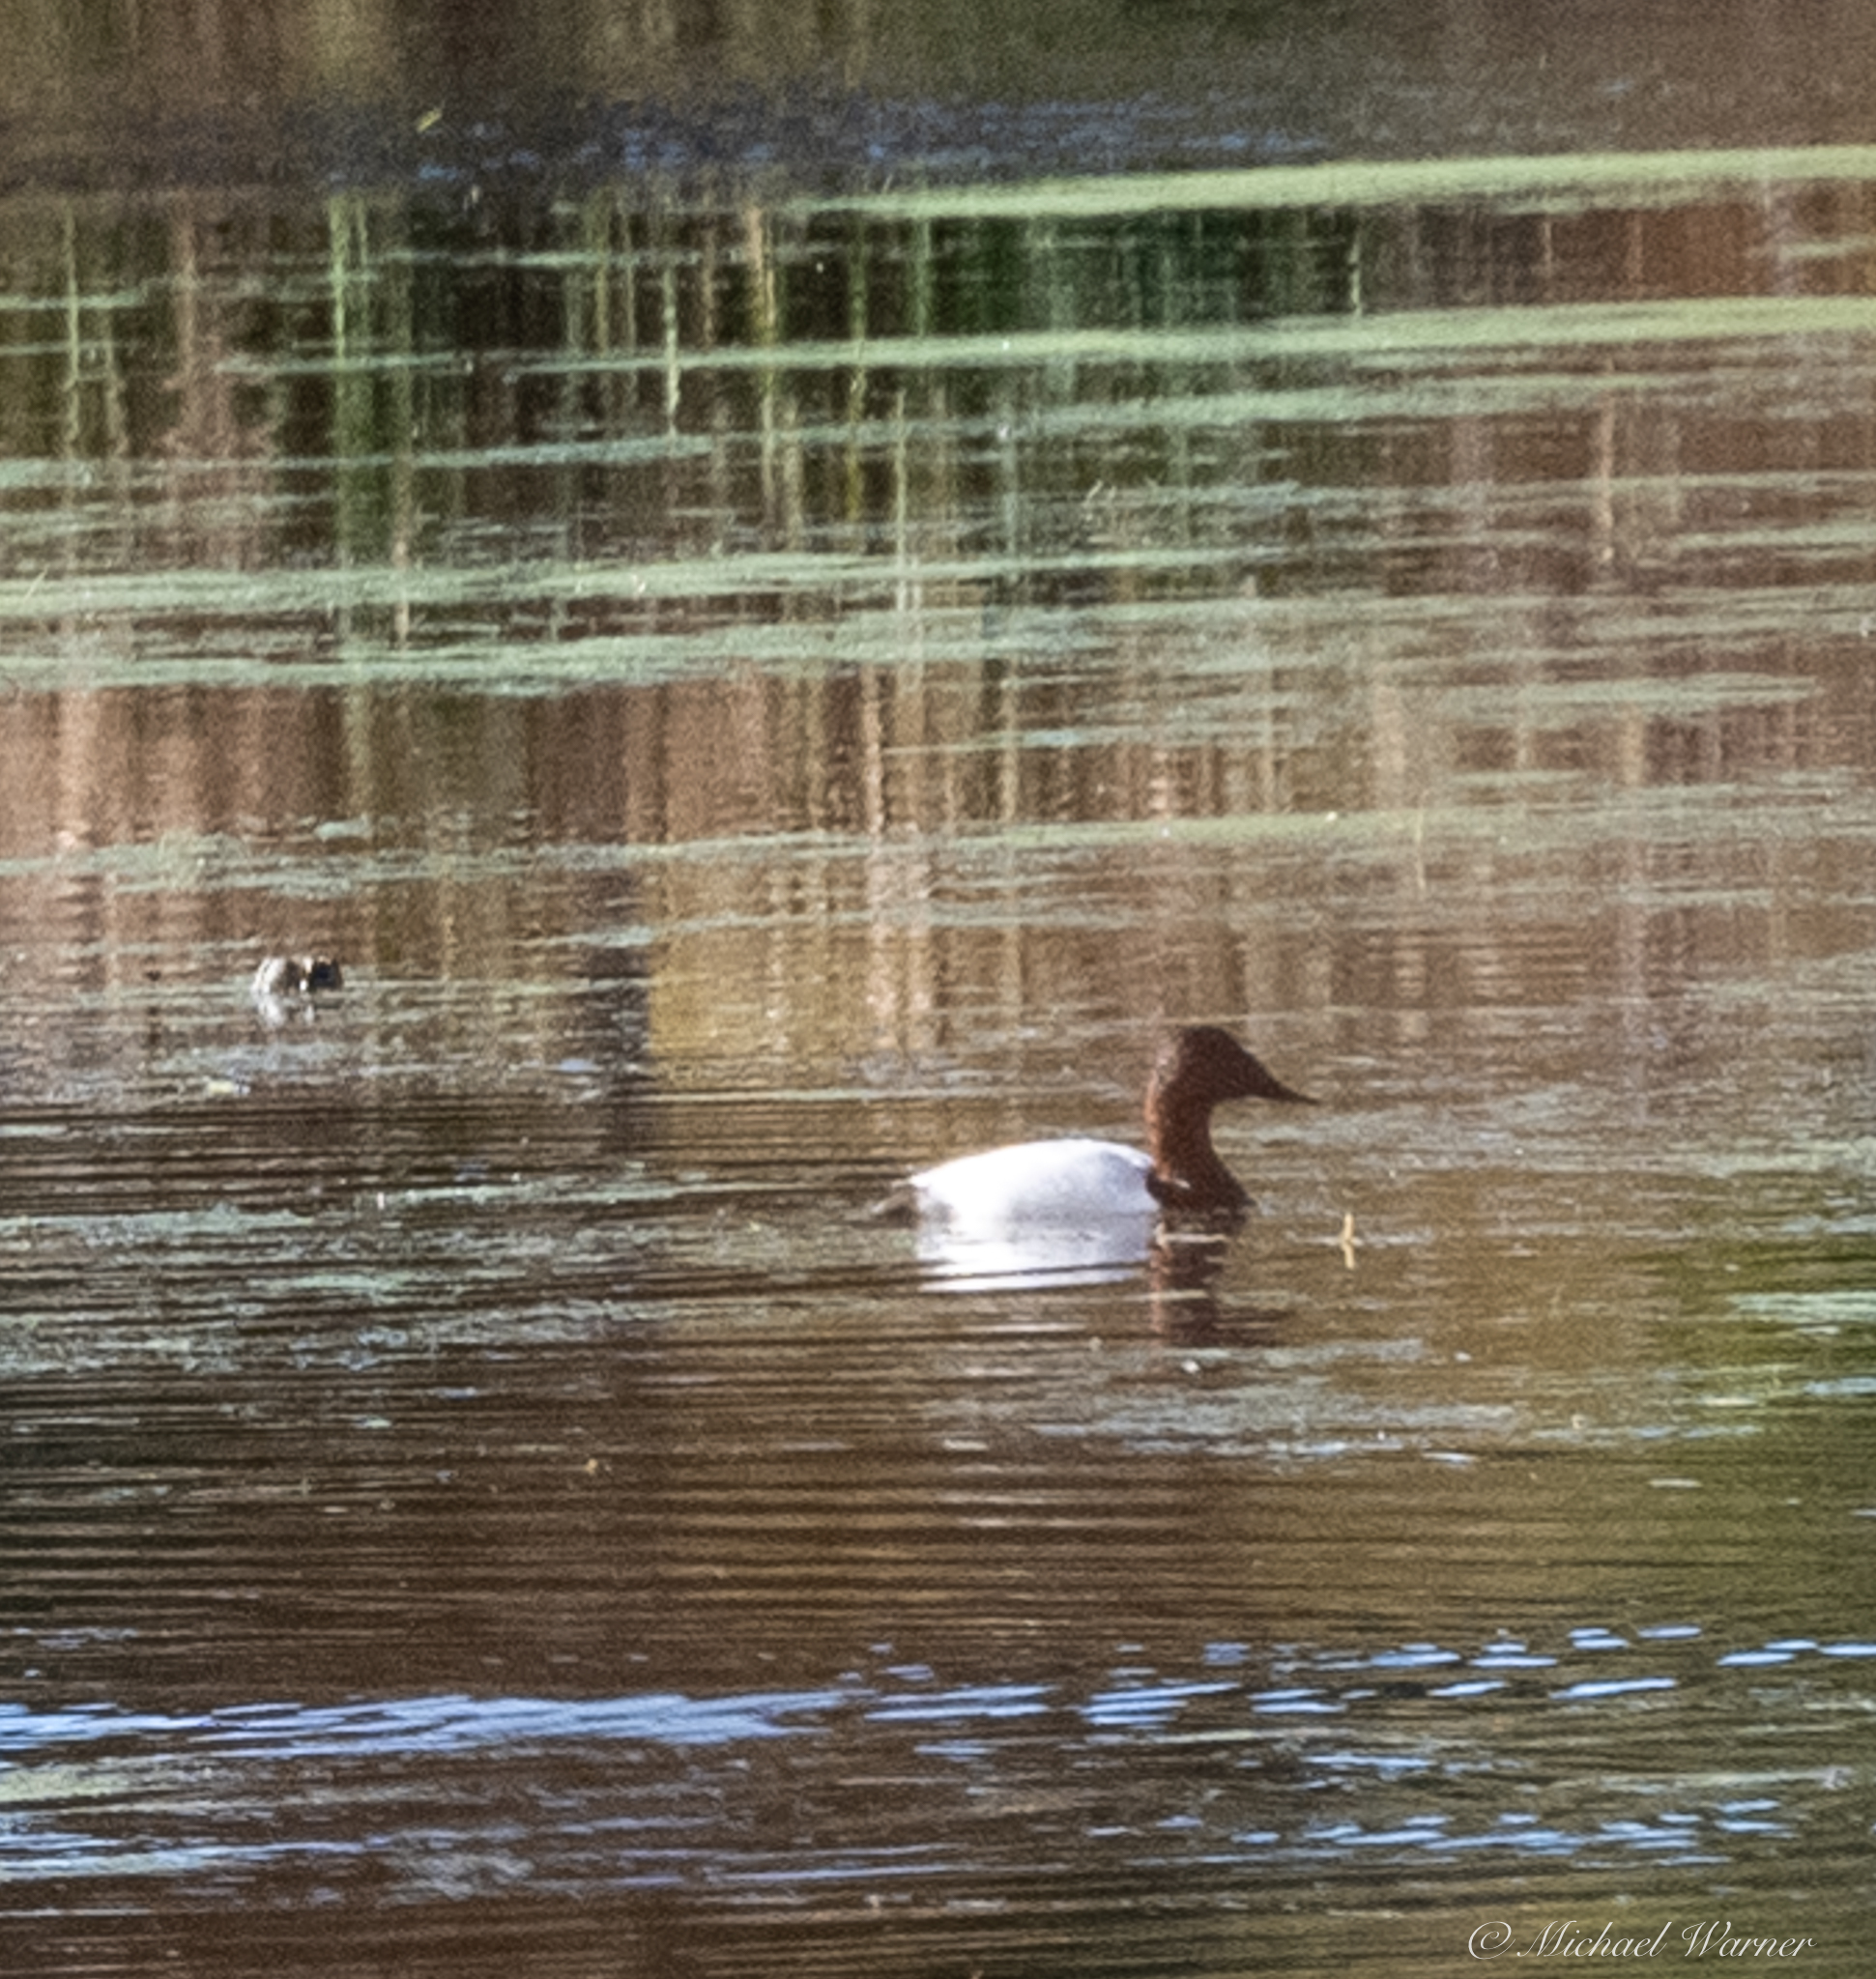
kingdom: Animalia
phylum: Chordata
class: Aves
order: Anseriformes
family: Anatidae
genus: Aythya
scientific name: Aythya valisineria
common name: Canvasback
